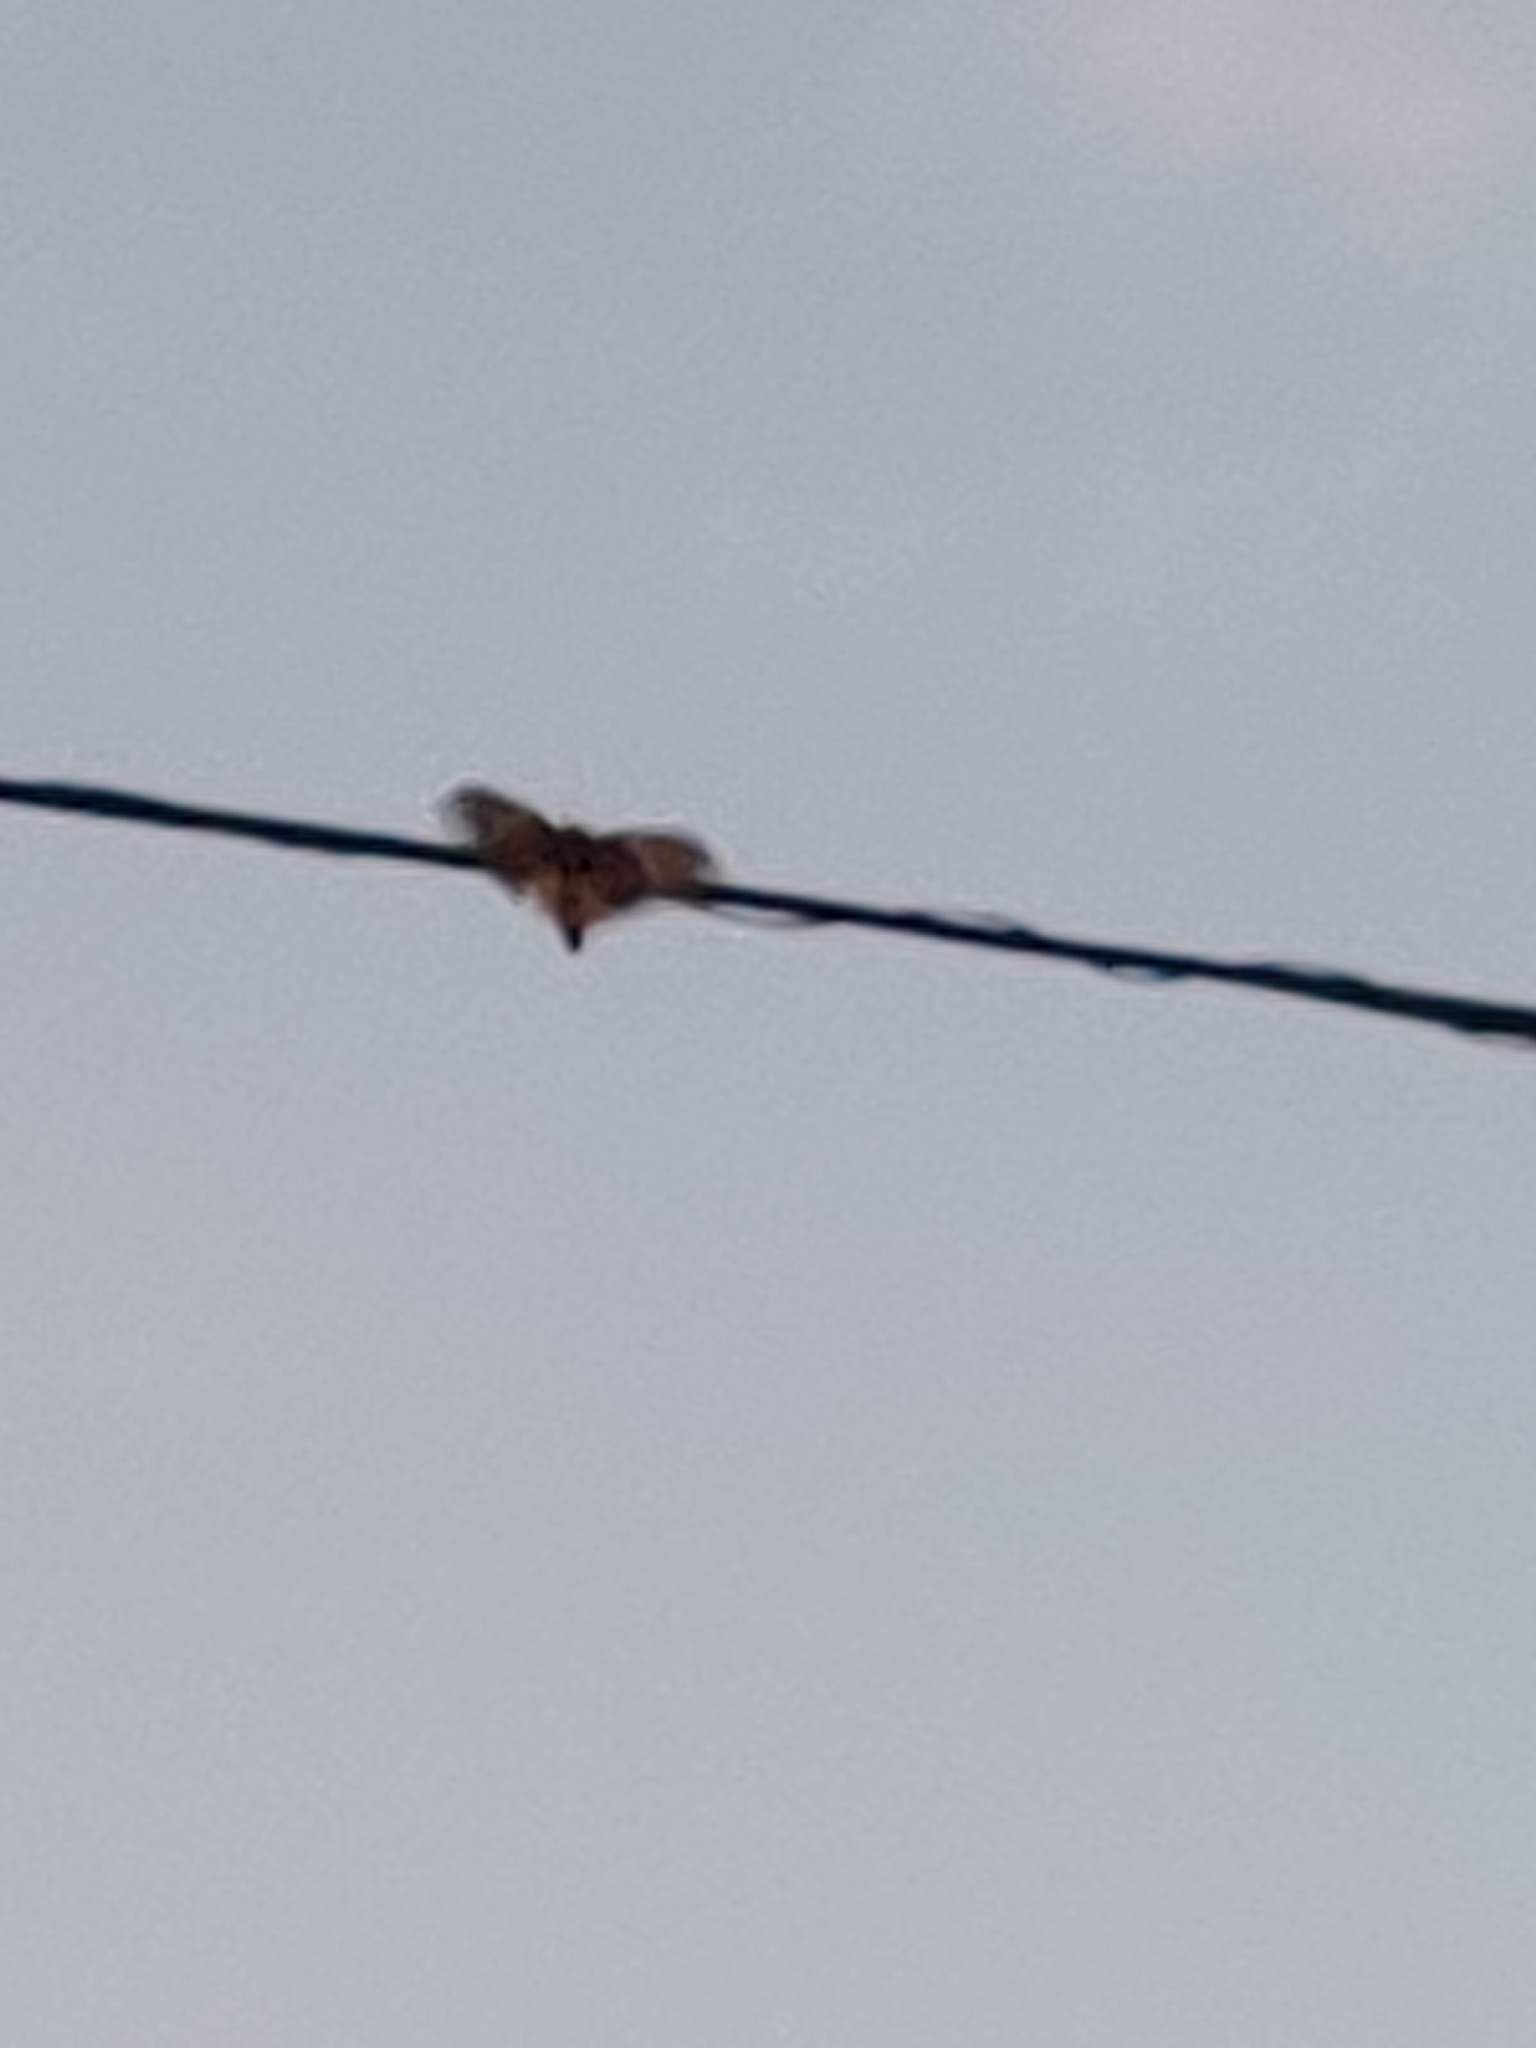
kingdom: Animalia
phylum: Arthropoda
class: Insecta
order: Lepidoptera
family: Saturniidae
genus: Citheronia
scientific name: Citheronia regalis
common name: Hickory horned devil
